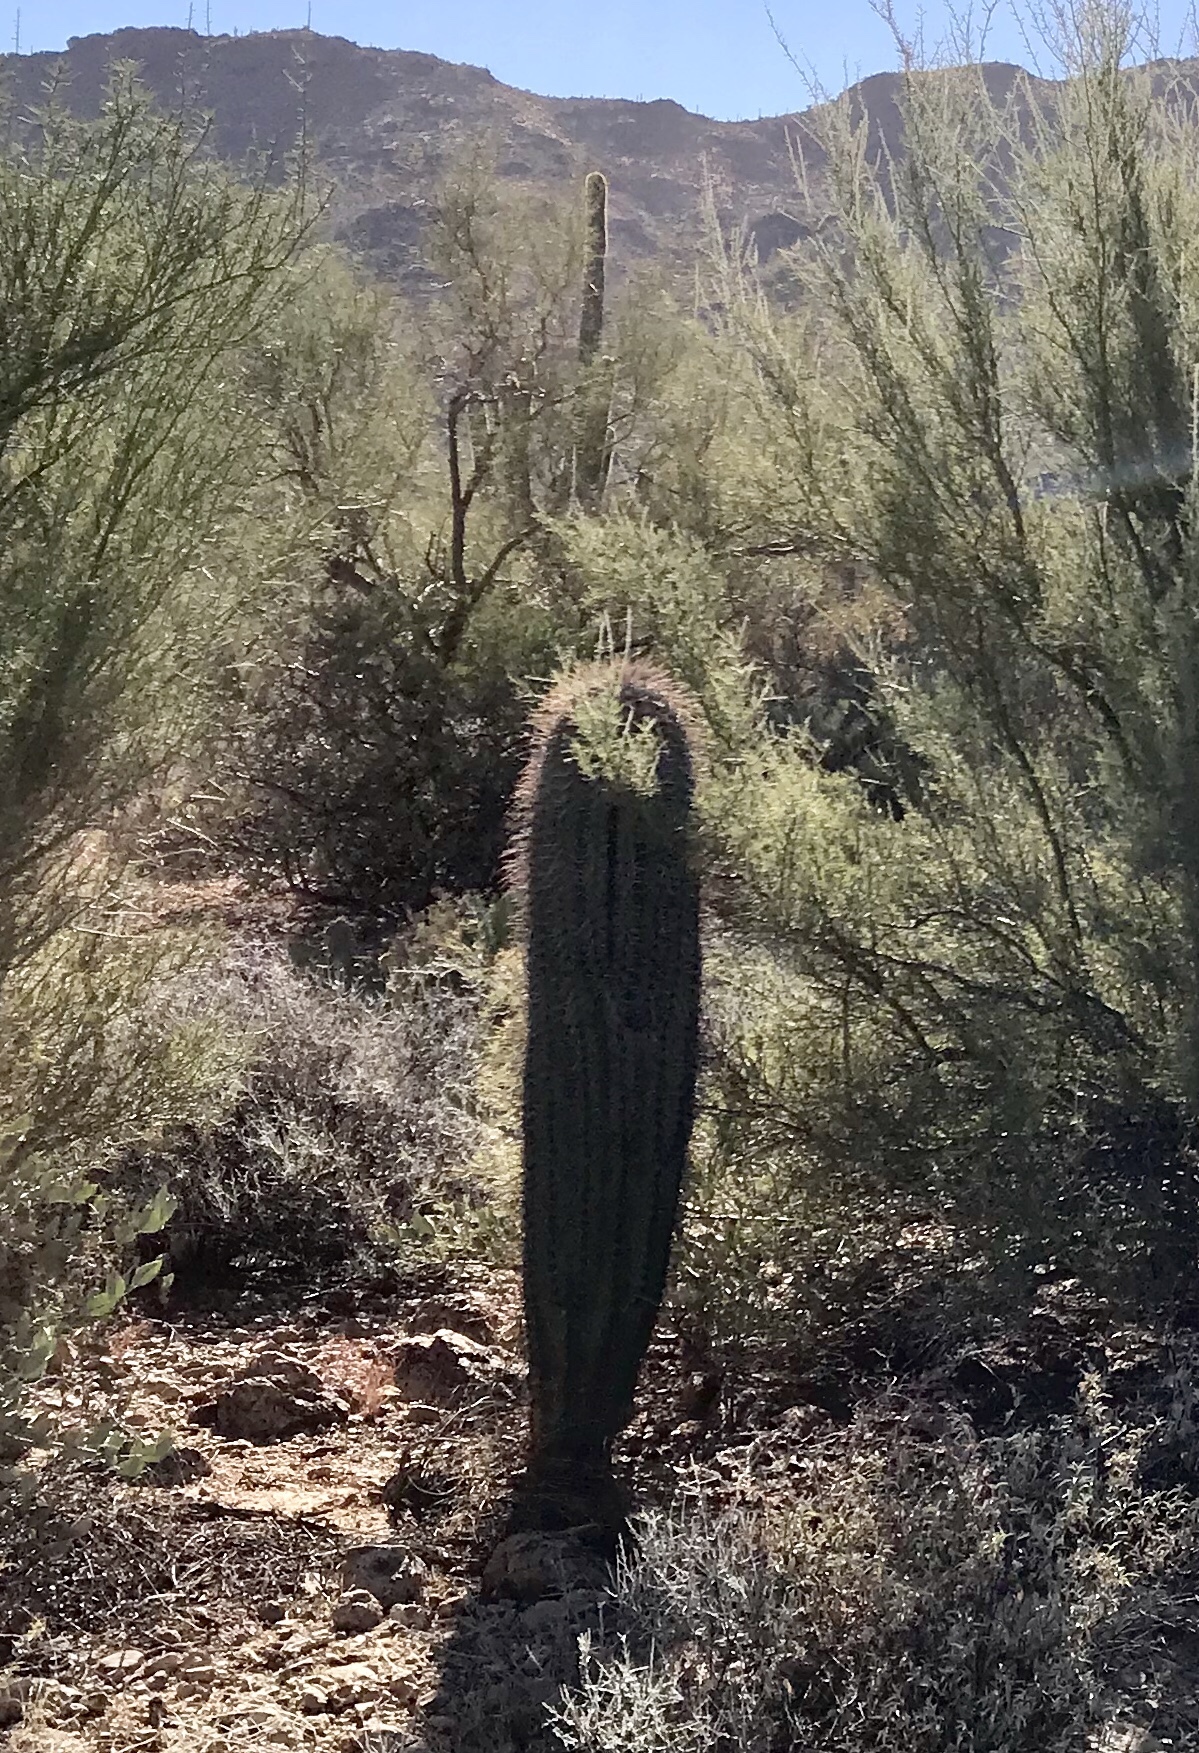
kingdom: Plantae
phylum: Tracheophyta
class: Magnoliopsida
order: Caryophyllales
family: Cactaceae
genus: Carnegiea
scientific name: Carnegiea gigantea
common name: Saguaro
